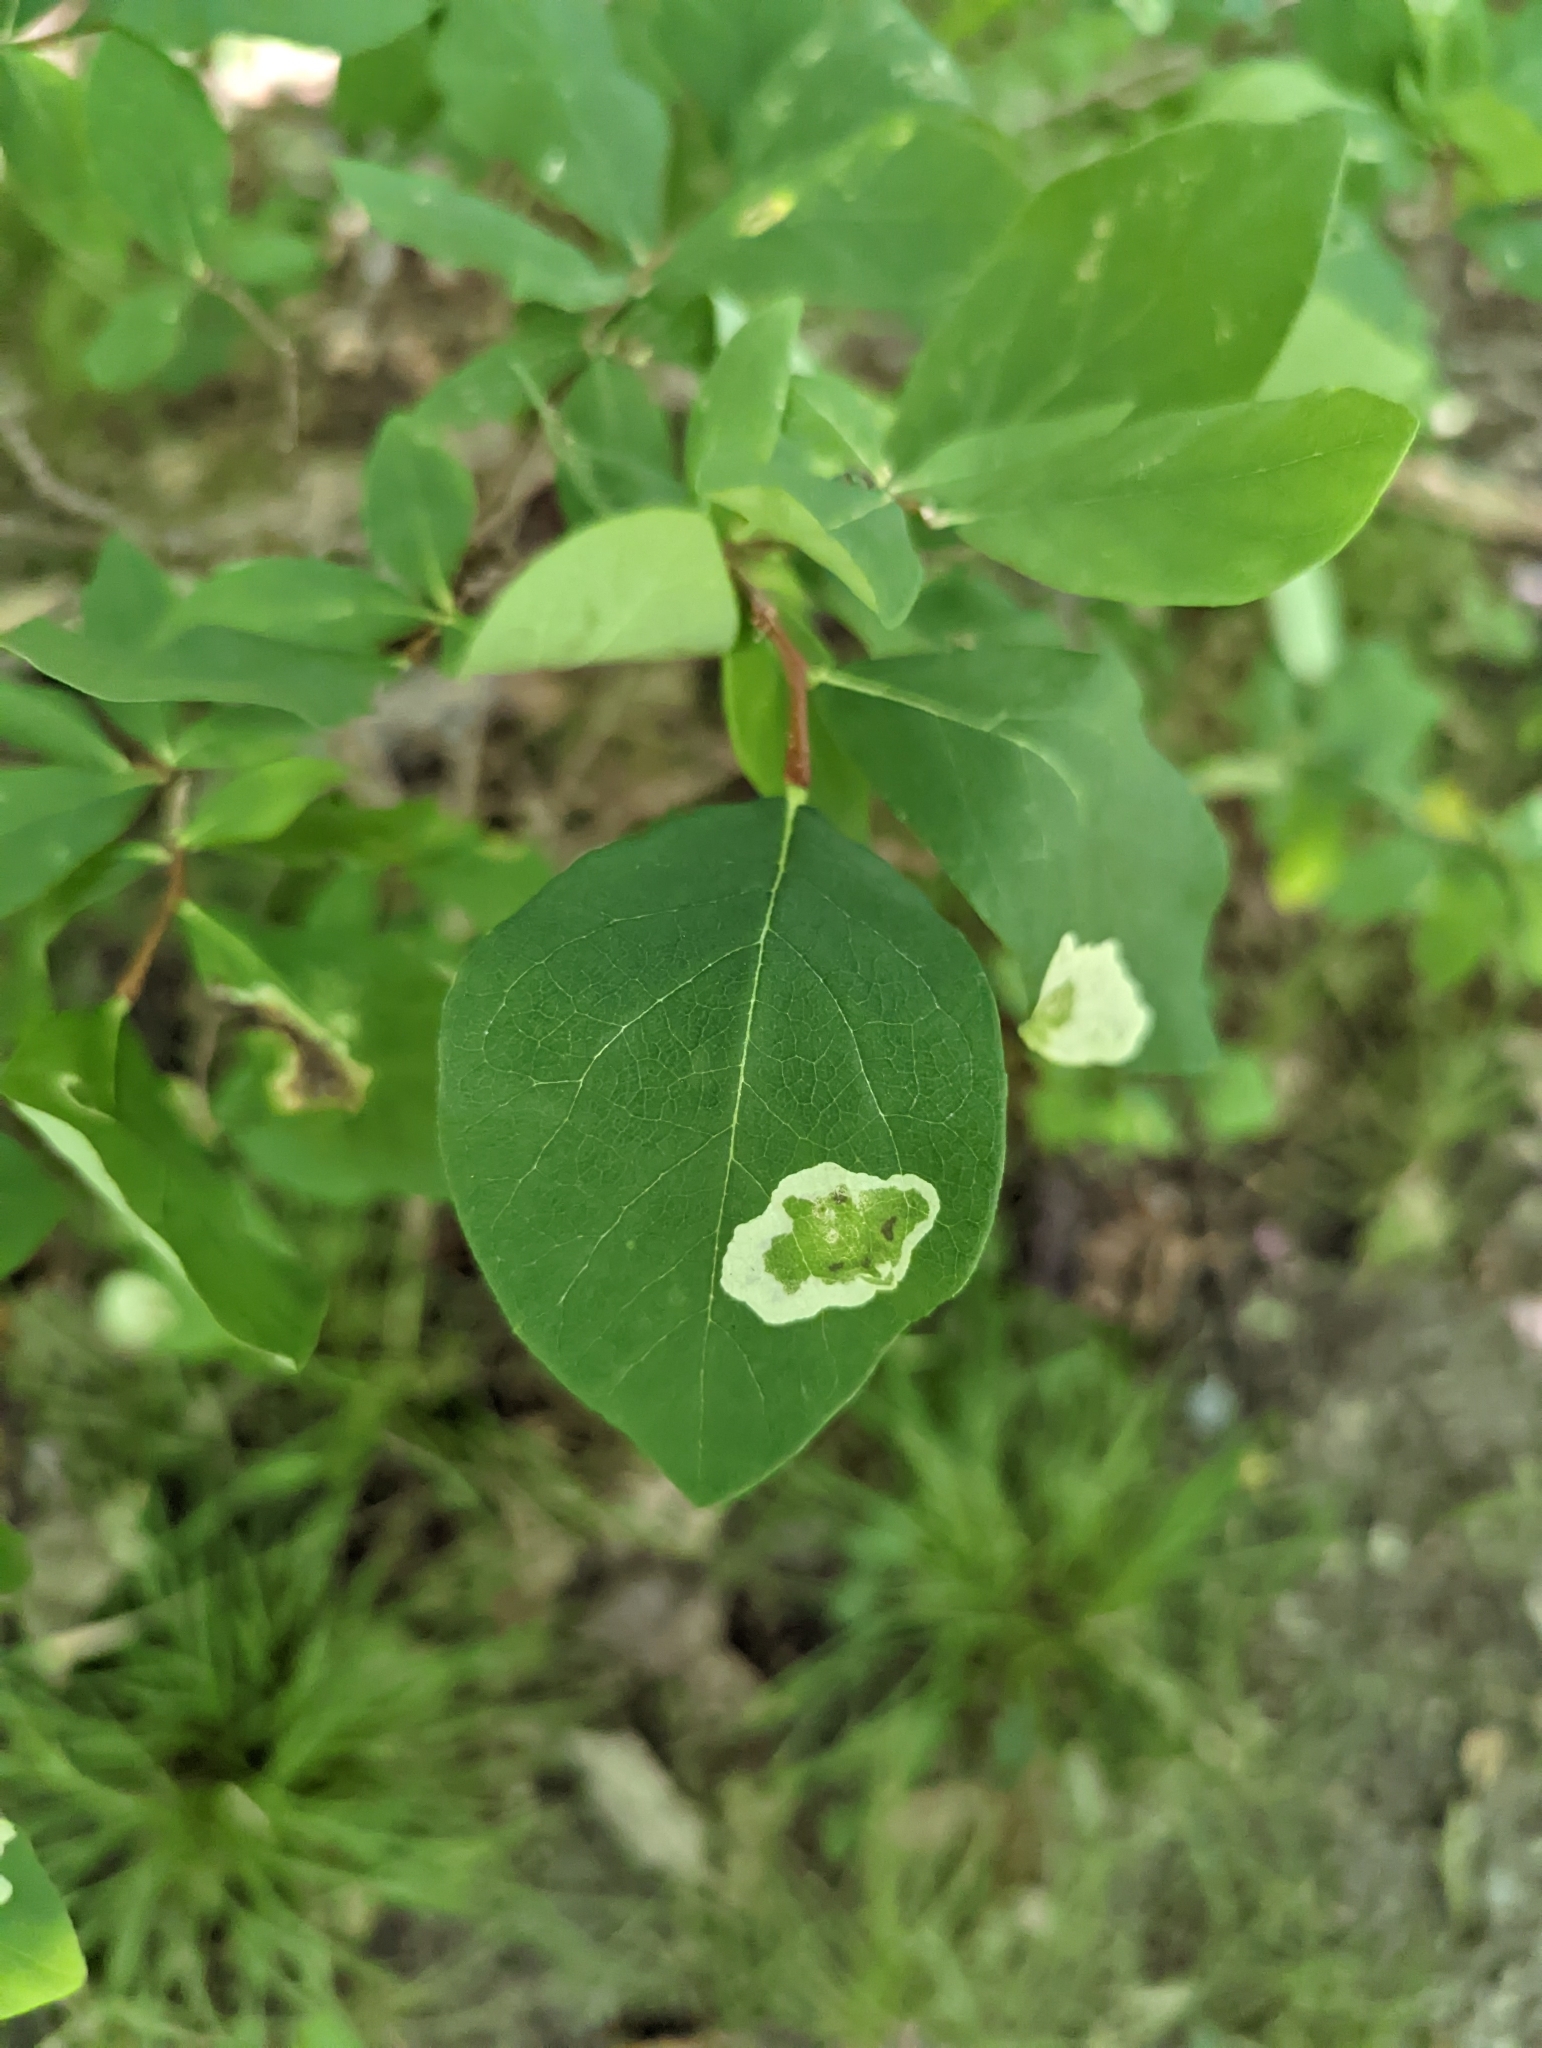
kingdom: Animalia
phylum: Arthropoda
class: Insecta
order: Lepidoptera
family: Gracillariidae
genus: Leucanthiza
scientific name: Leucanthiza dircella
